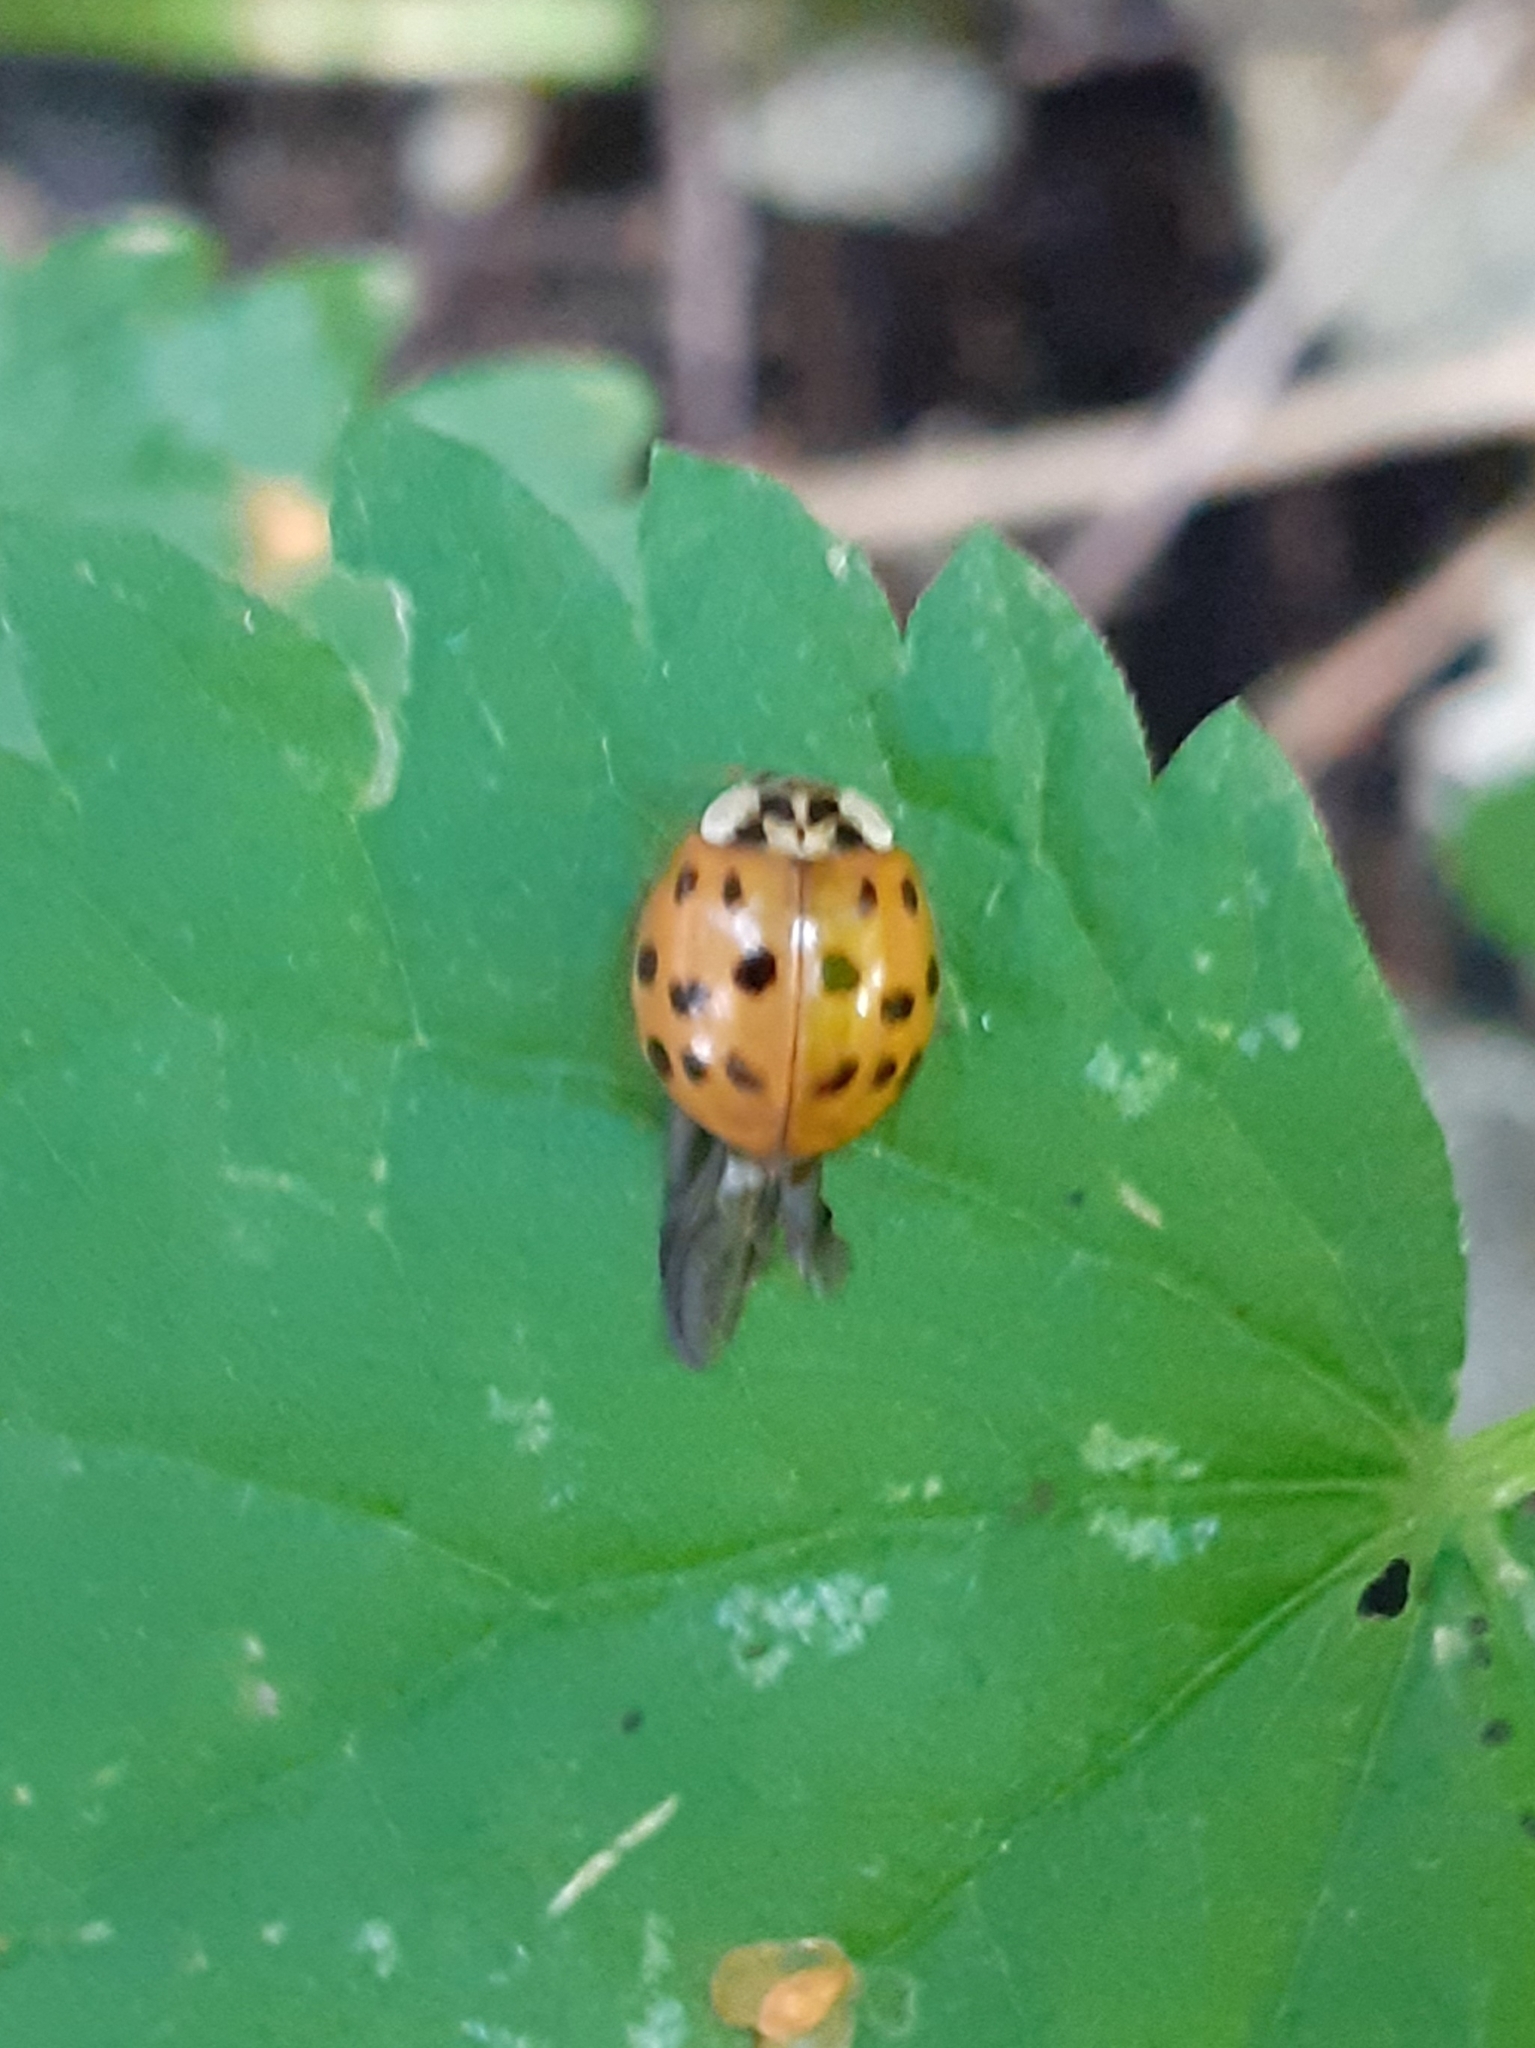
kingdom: Animalia
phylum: Arthropoda
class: Insecta
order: Coleoptera
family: Coccinellidae
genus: Harmonia
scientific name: Harmonia axyridis
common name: Harlequin ladybird
